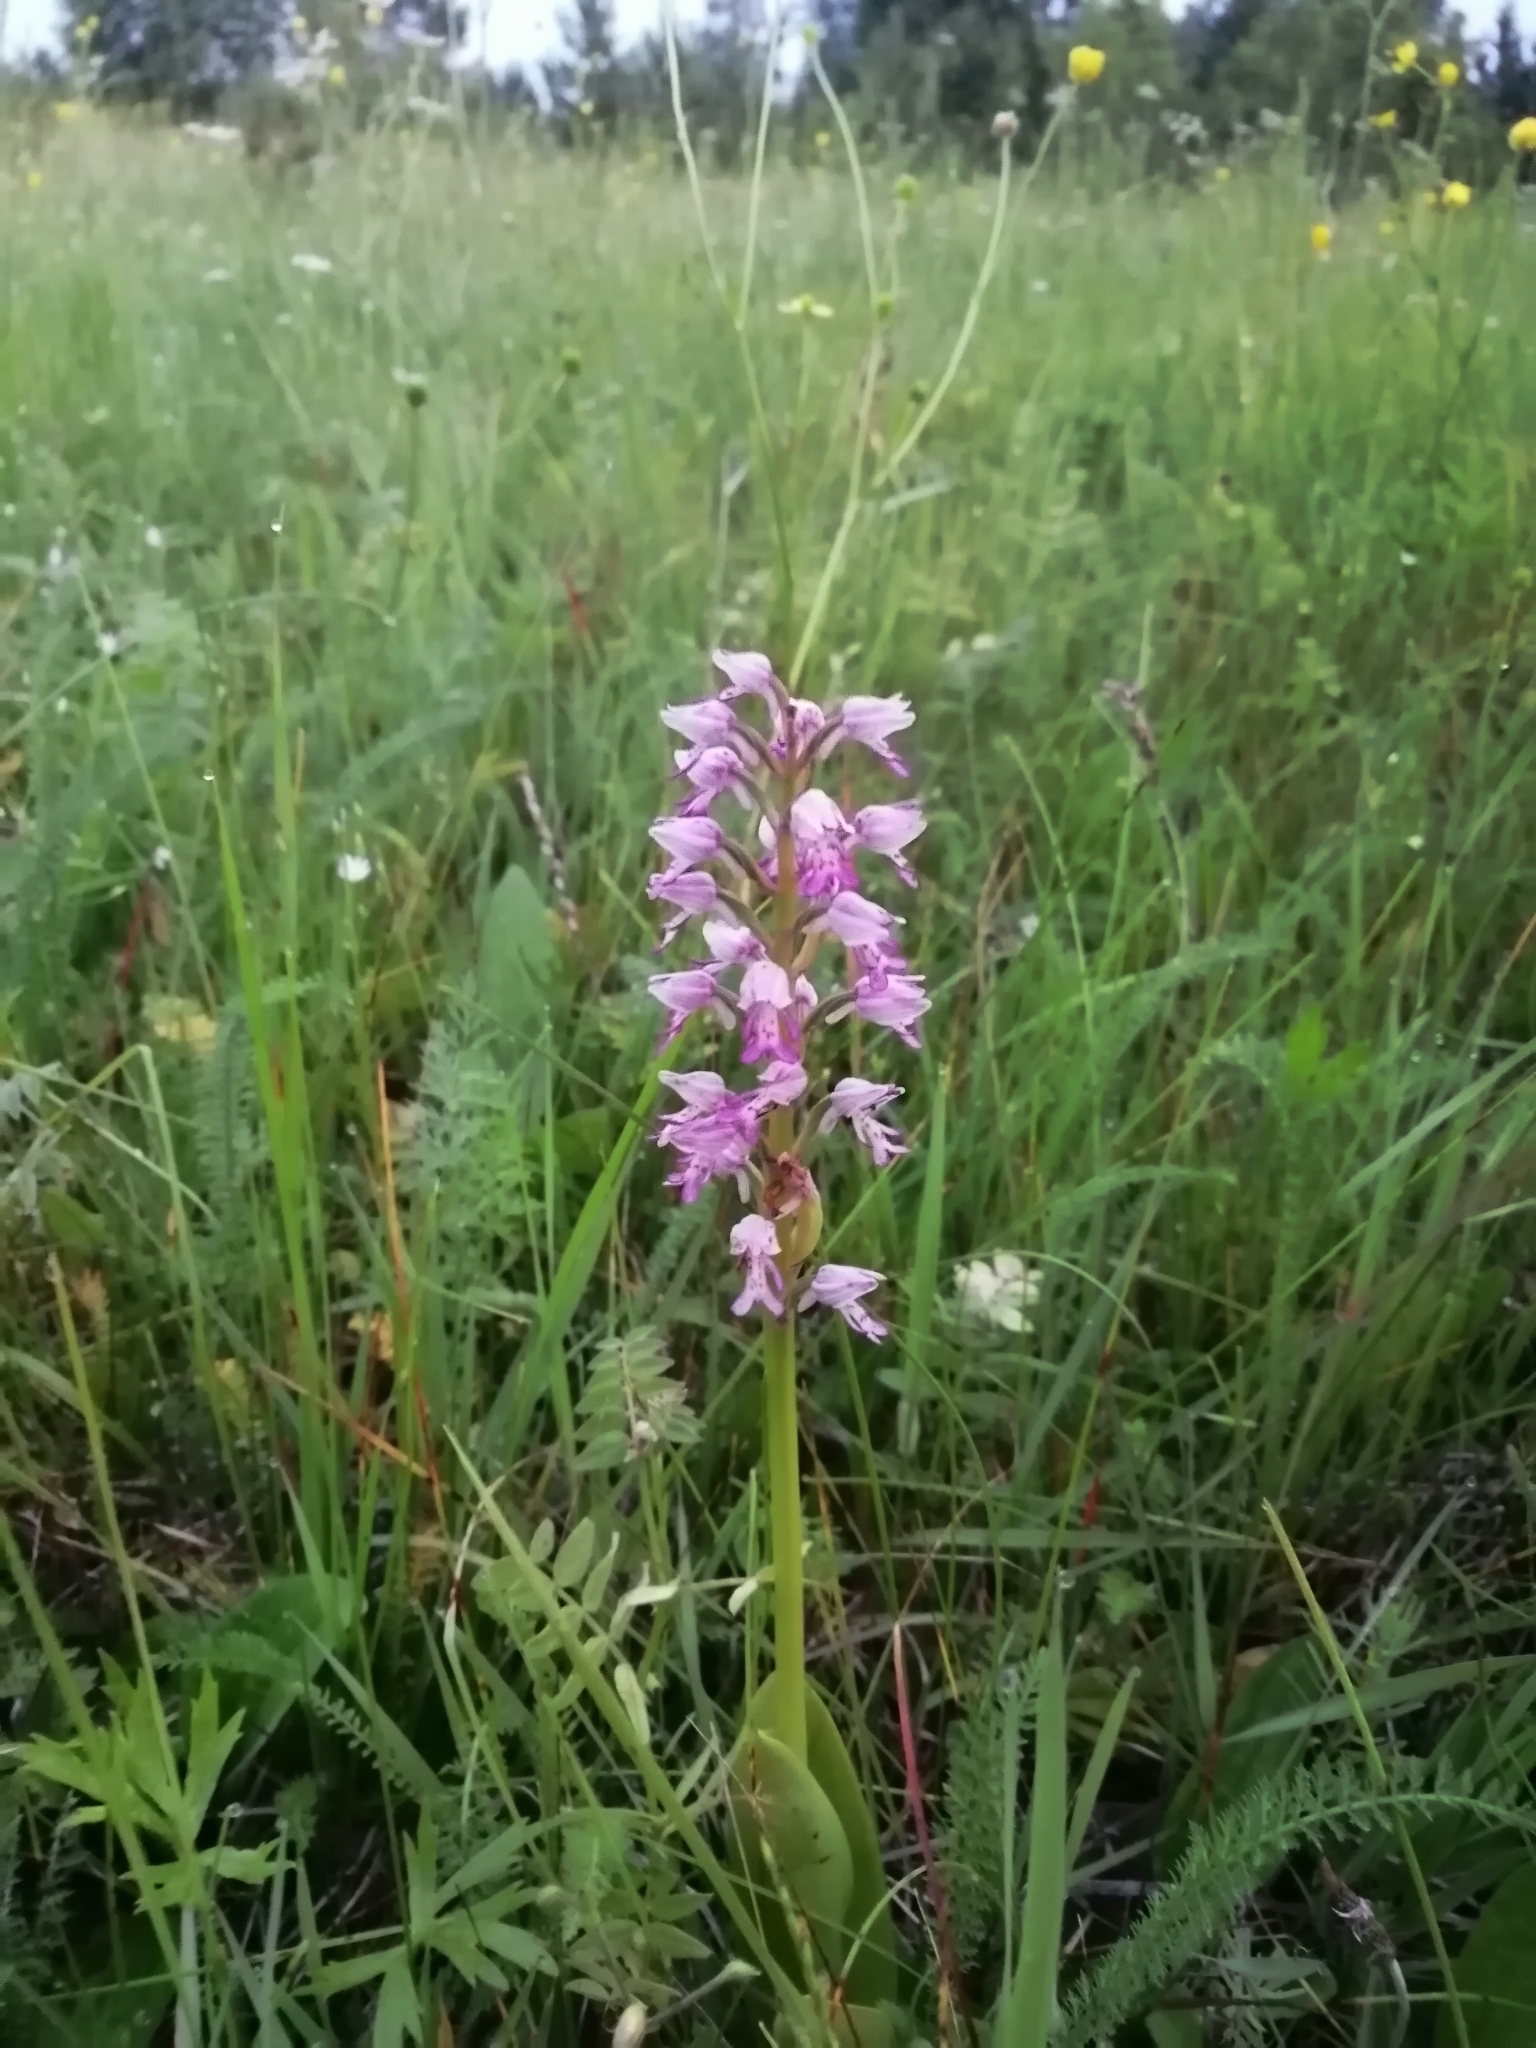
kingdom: Plantae
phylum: Tracheophyta
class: Liliopsida
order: Asparagales
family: Orchidaceae
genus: Orchis
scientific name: Orchis militaris
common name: Military orchid
